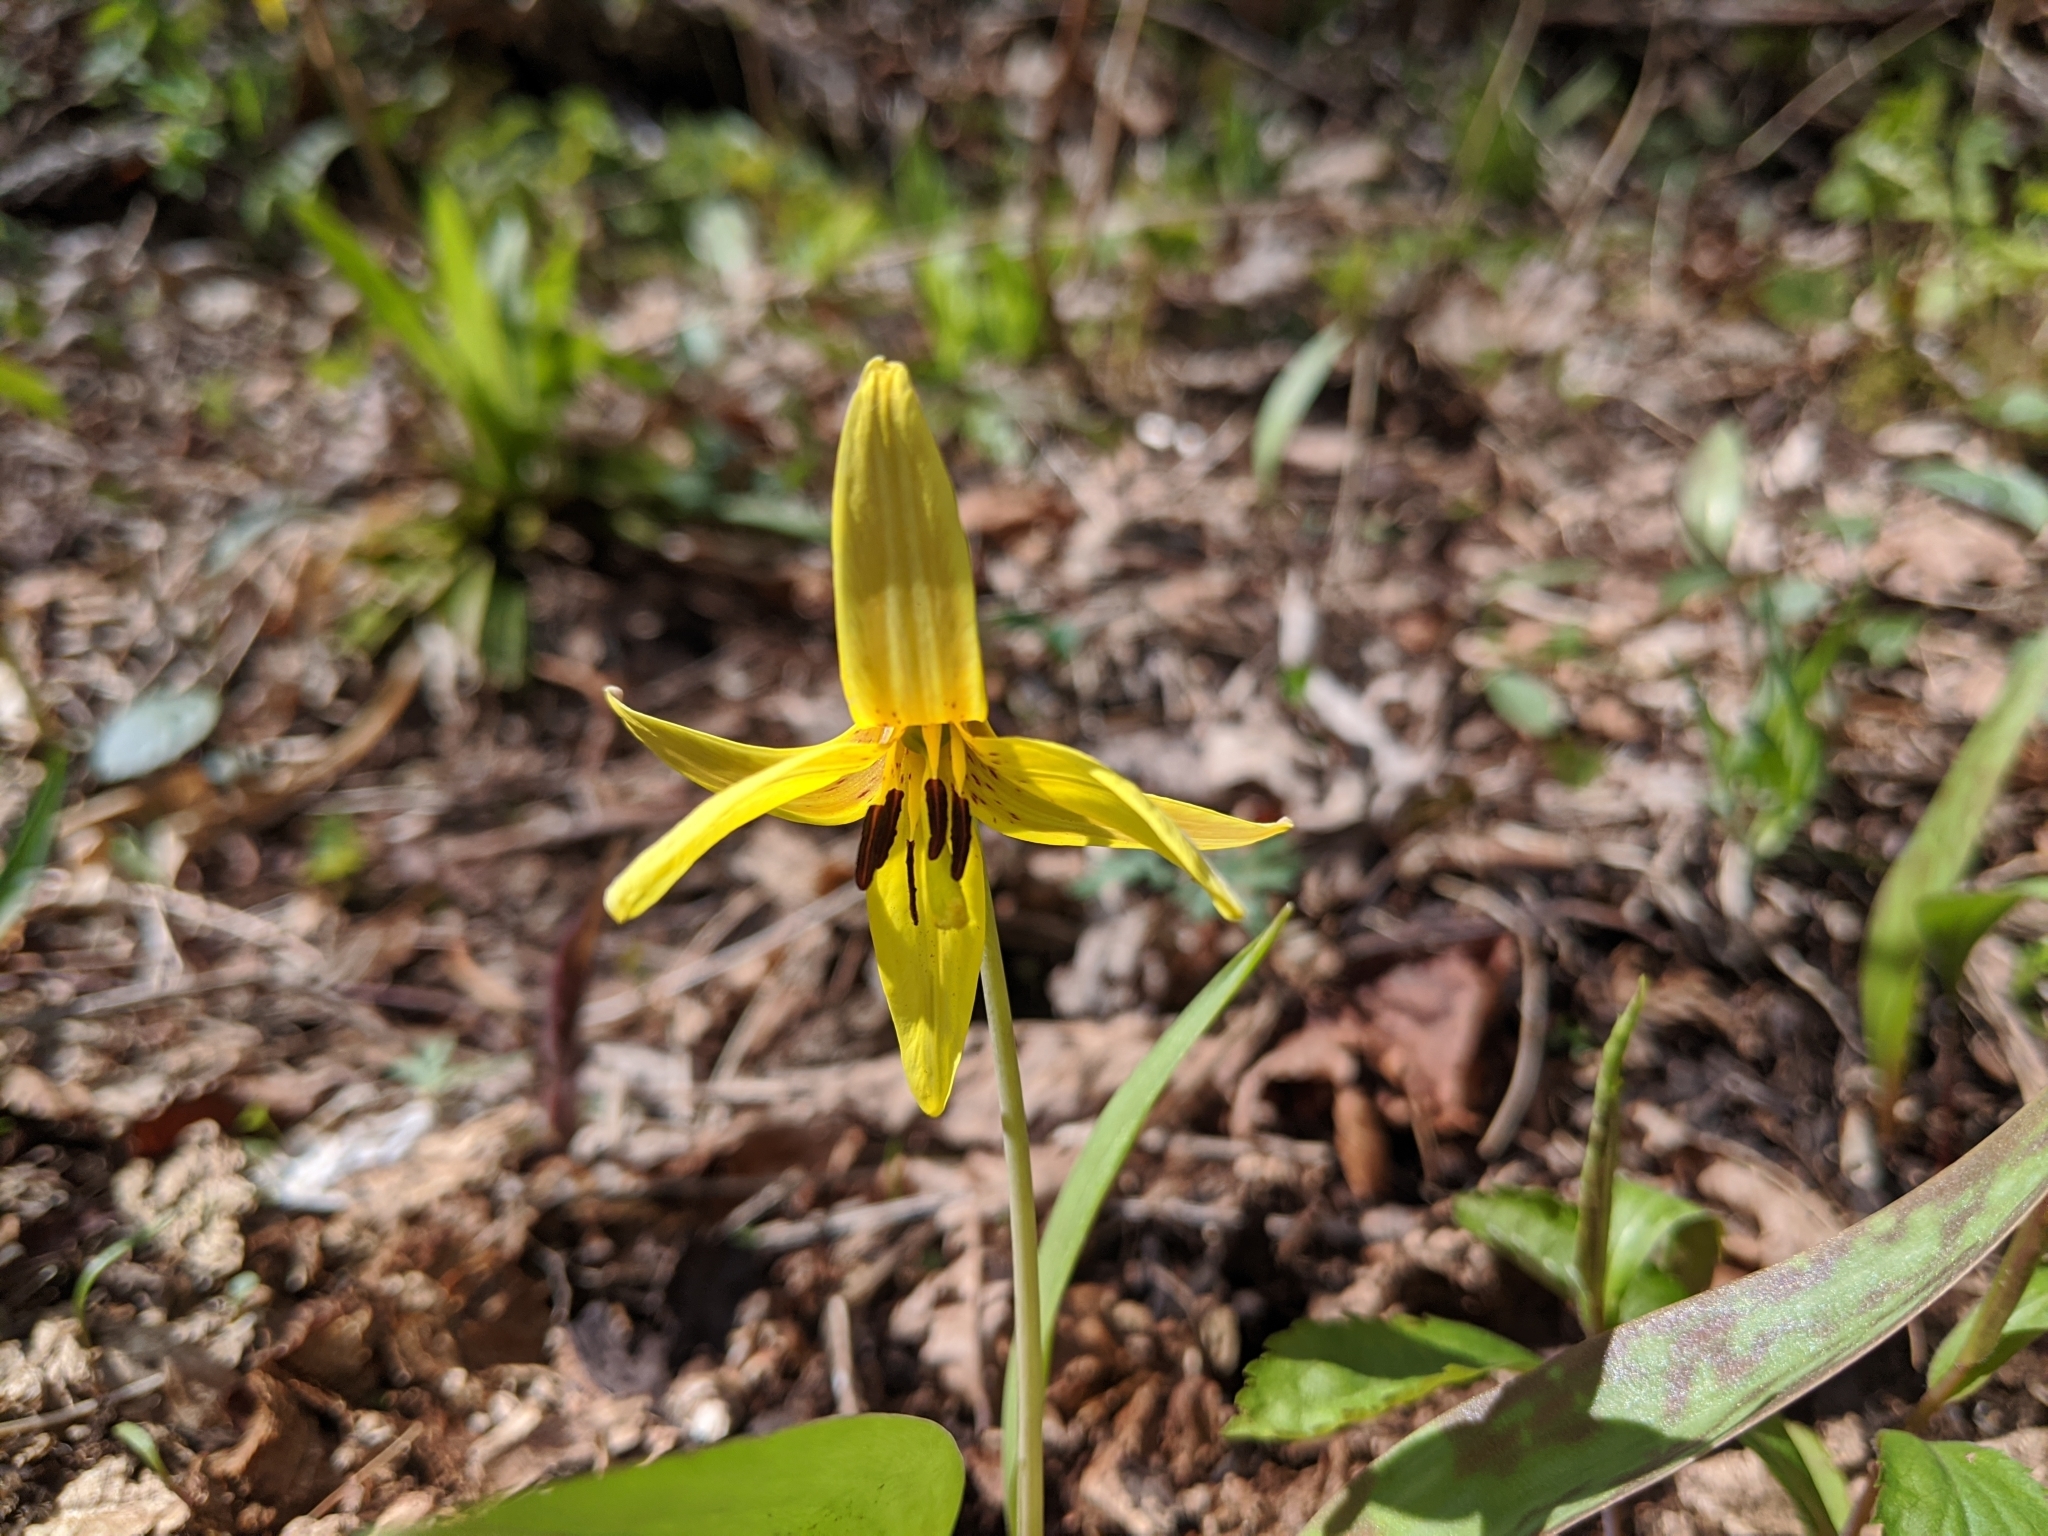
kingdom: Plantae
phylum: Tracheophyta
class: Liliopsida
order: Liliales
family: Liliaceae
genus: Erythronium
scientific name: Erythronium americanum
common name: Yellow adder's-tongue
